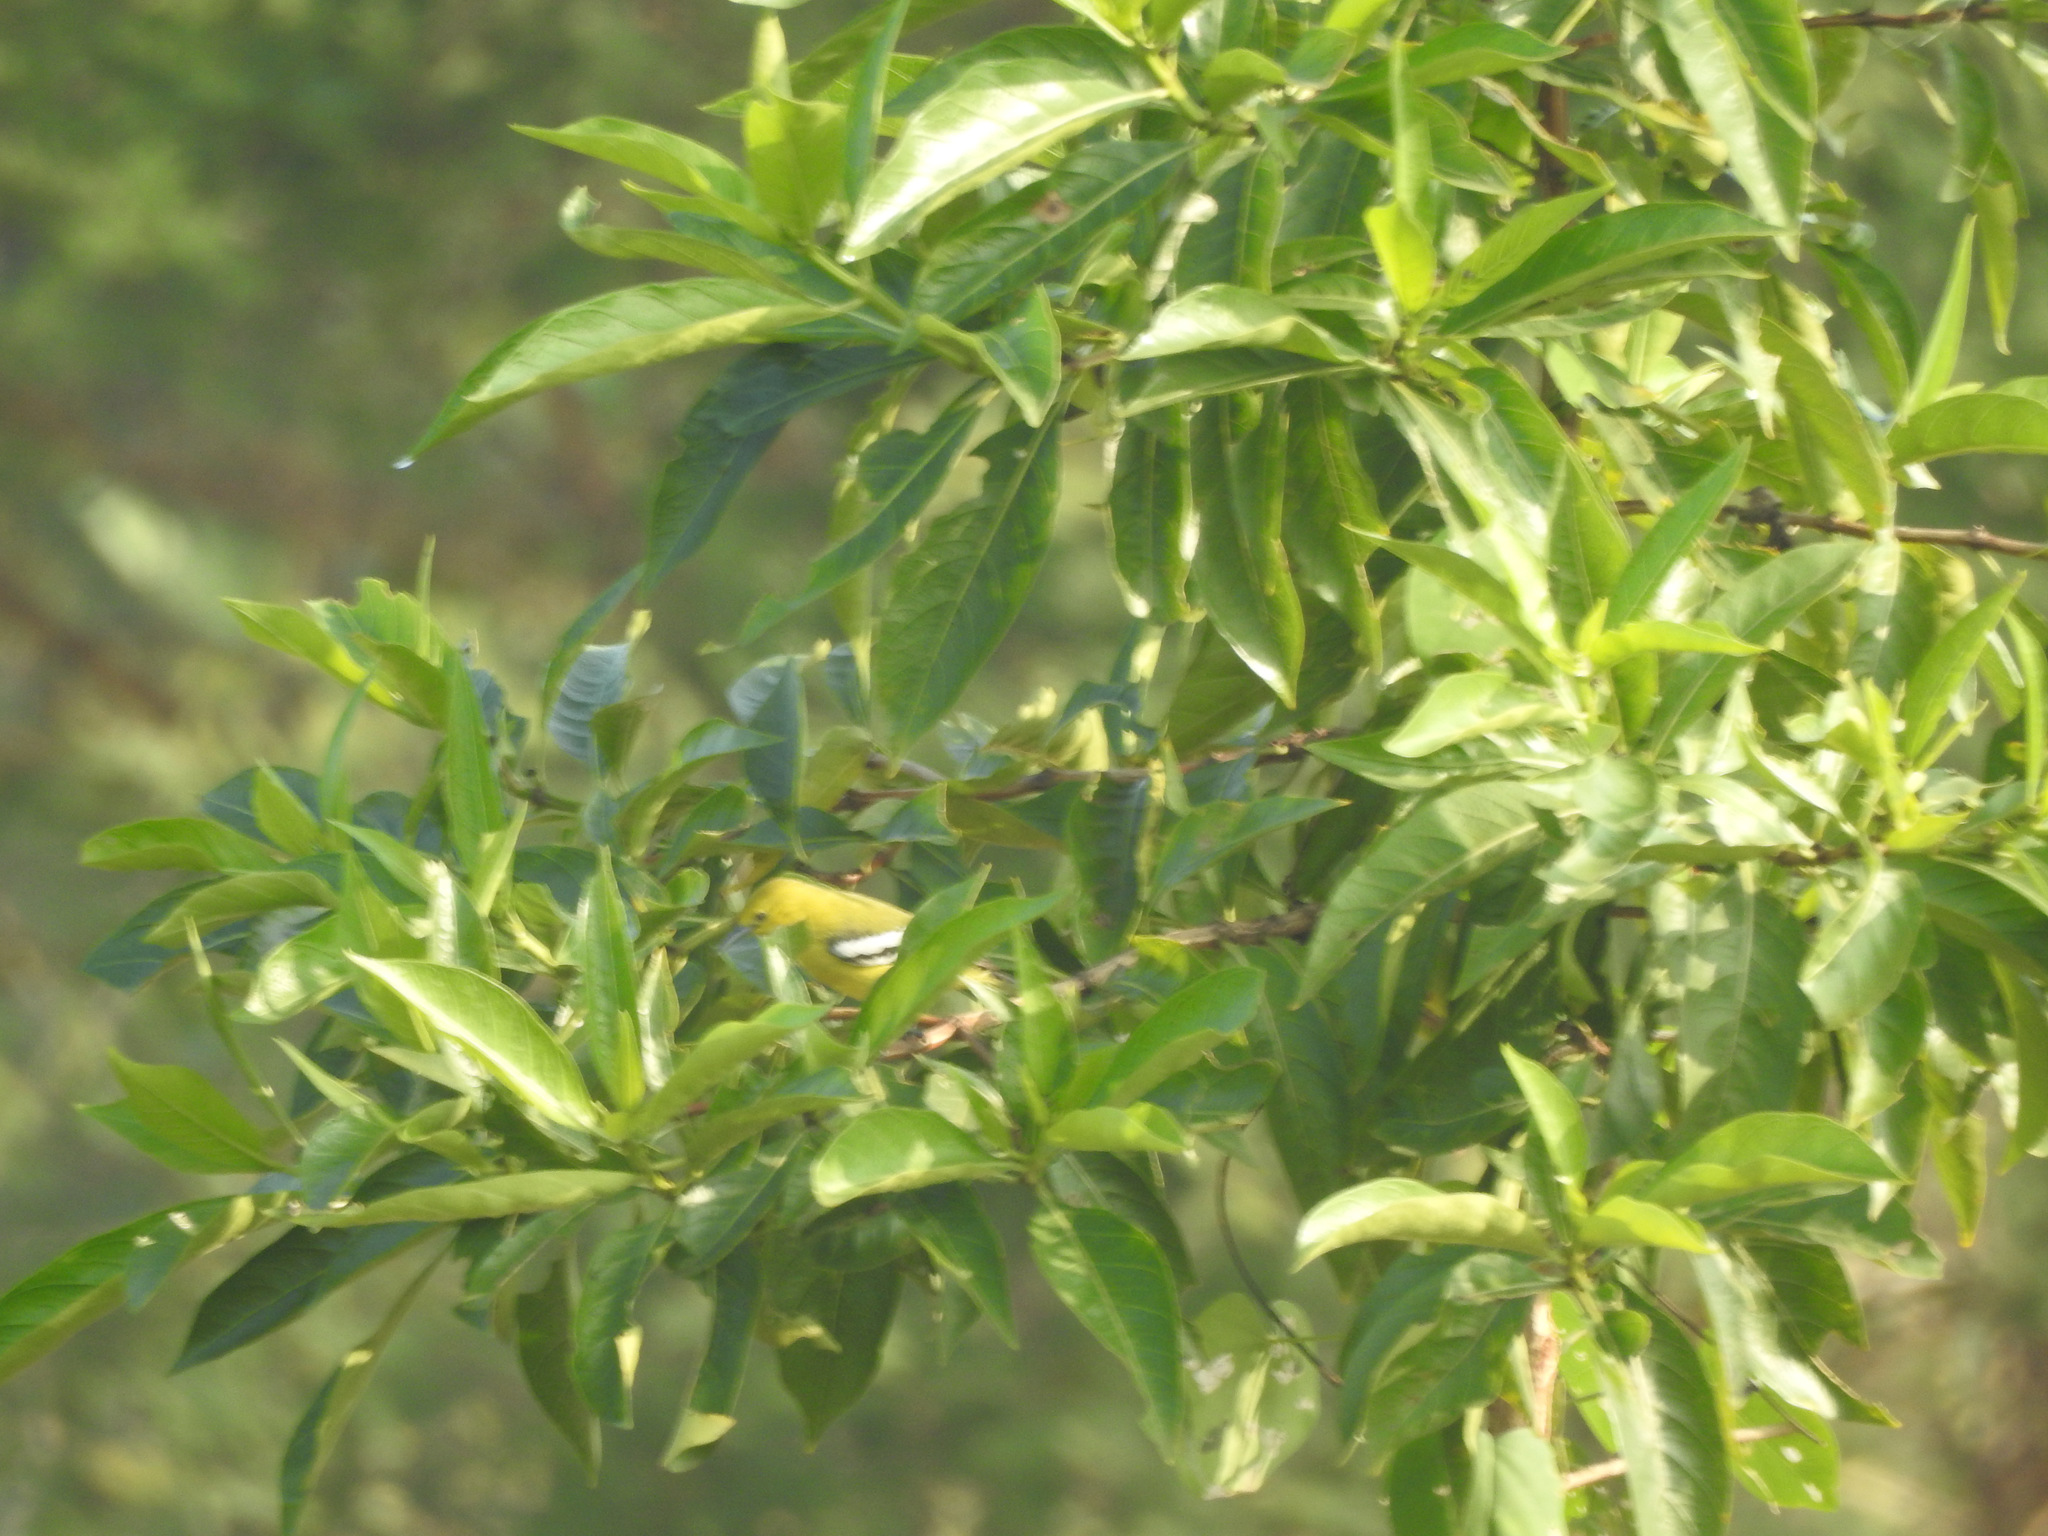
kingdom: Animalia
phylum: Chordata
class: Aves
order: Passeriformes
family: Aegithinidae
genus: Aegithina
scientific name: Aegithina nigrolutea
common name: Marshall's iora
